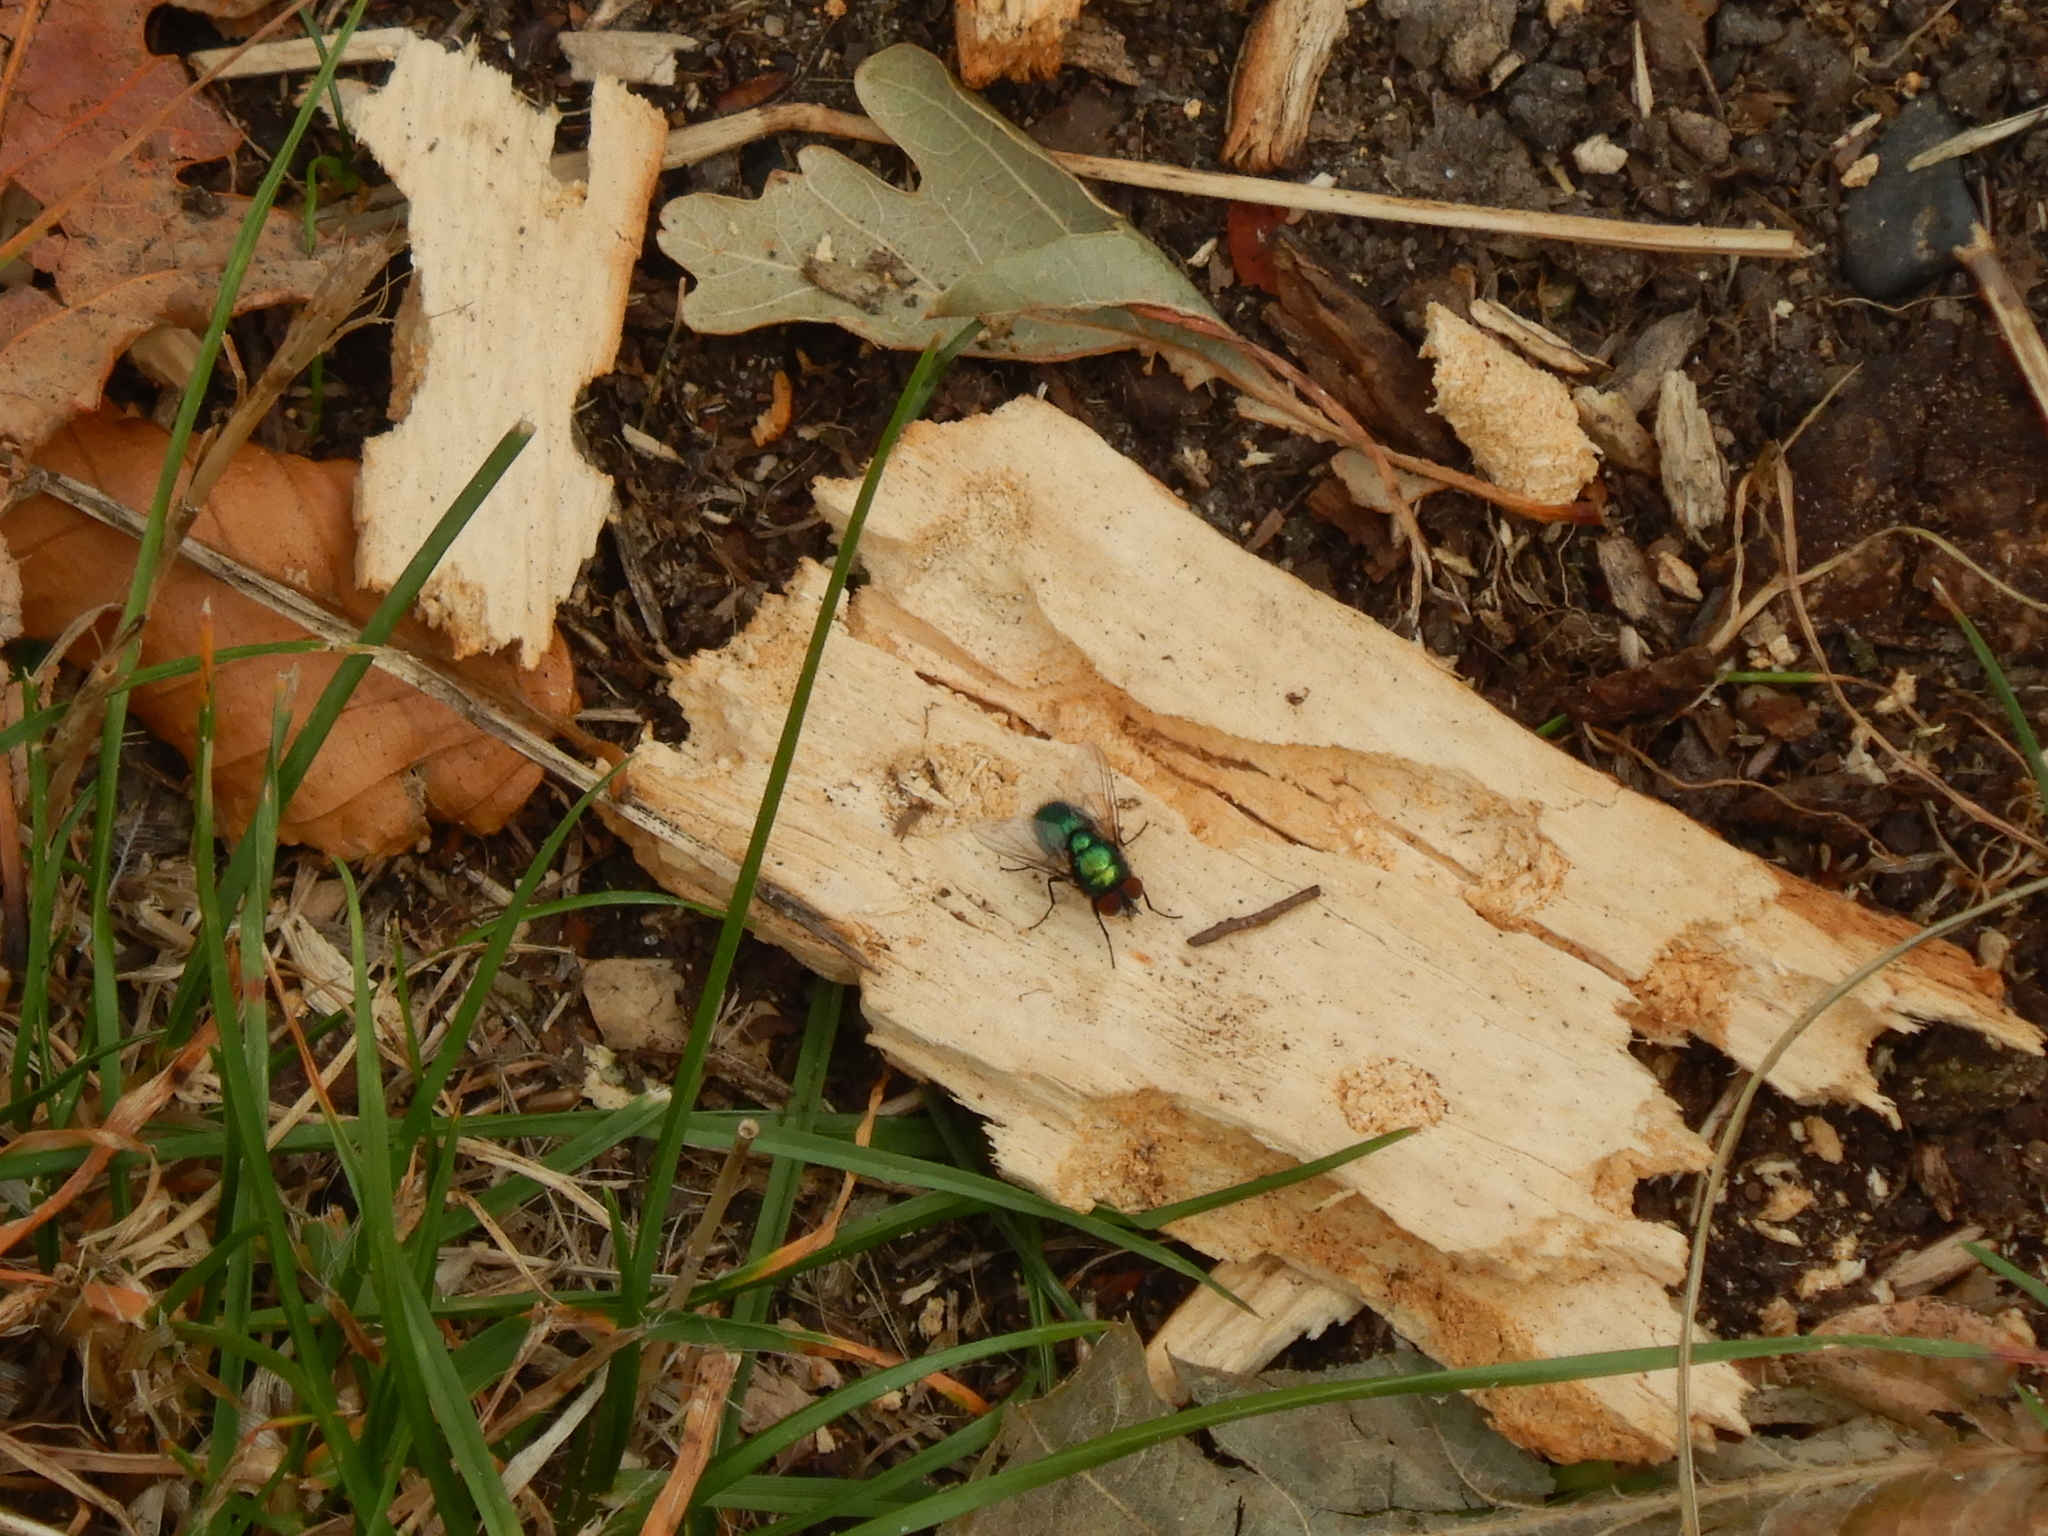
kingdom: Animalia
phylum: Arthropoda
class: Insecta
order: Diptera
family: Calliphoridae
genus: Lucilia
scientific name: Lucilia
